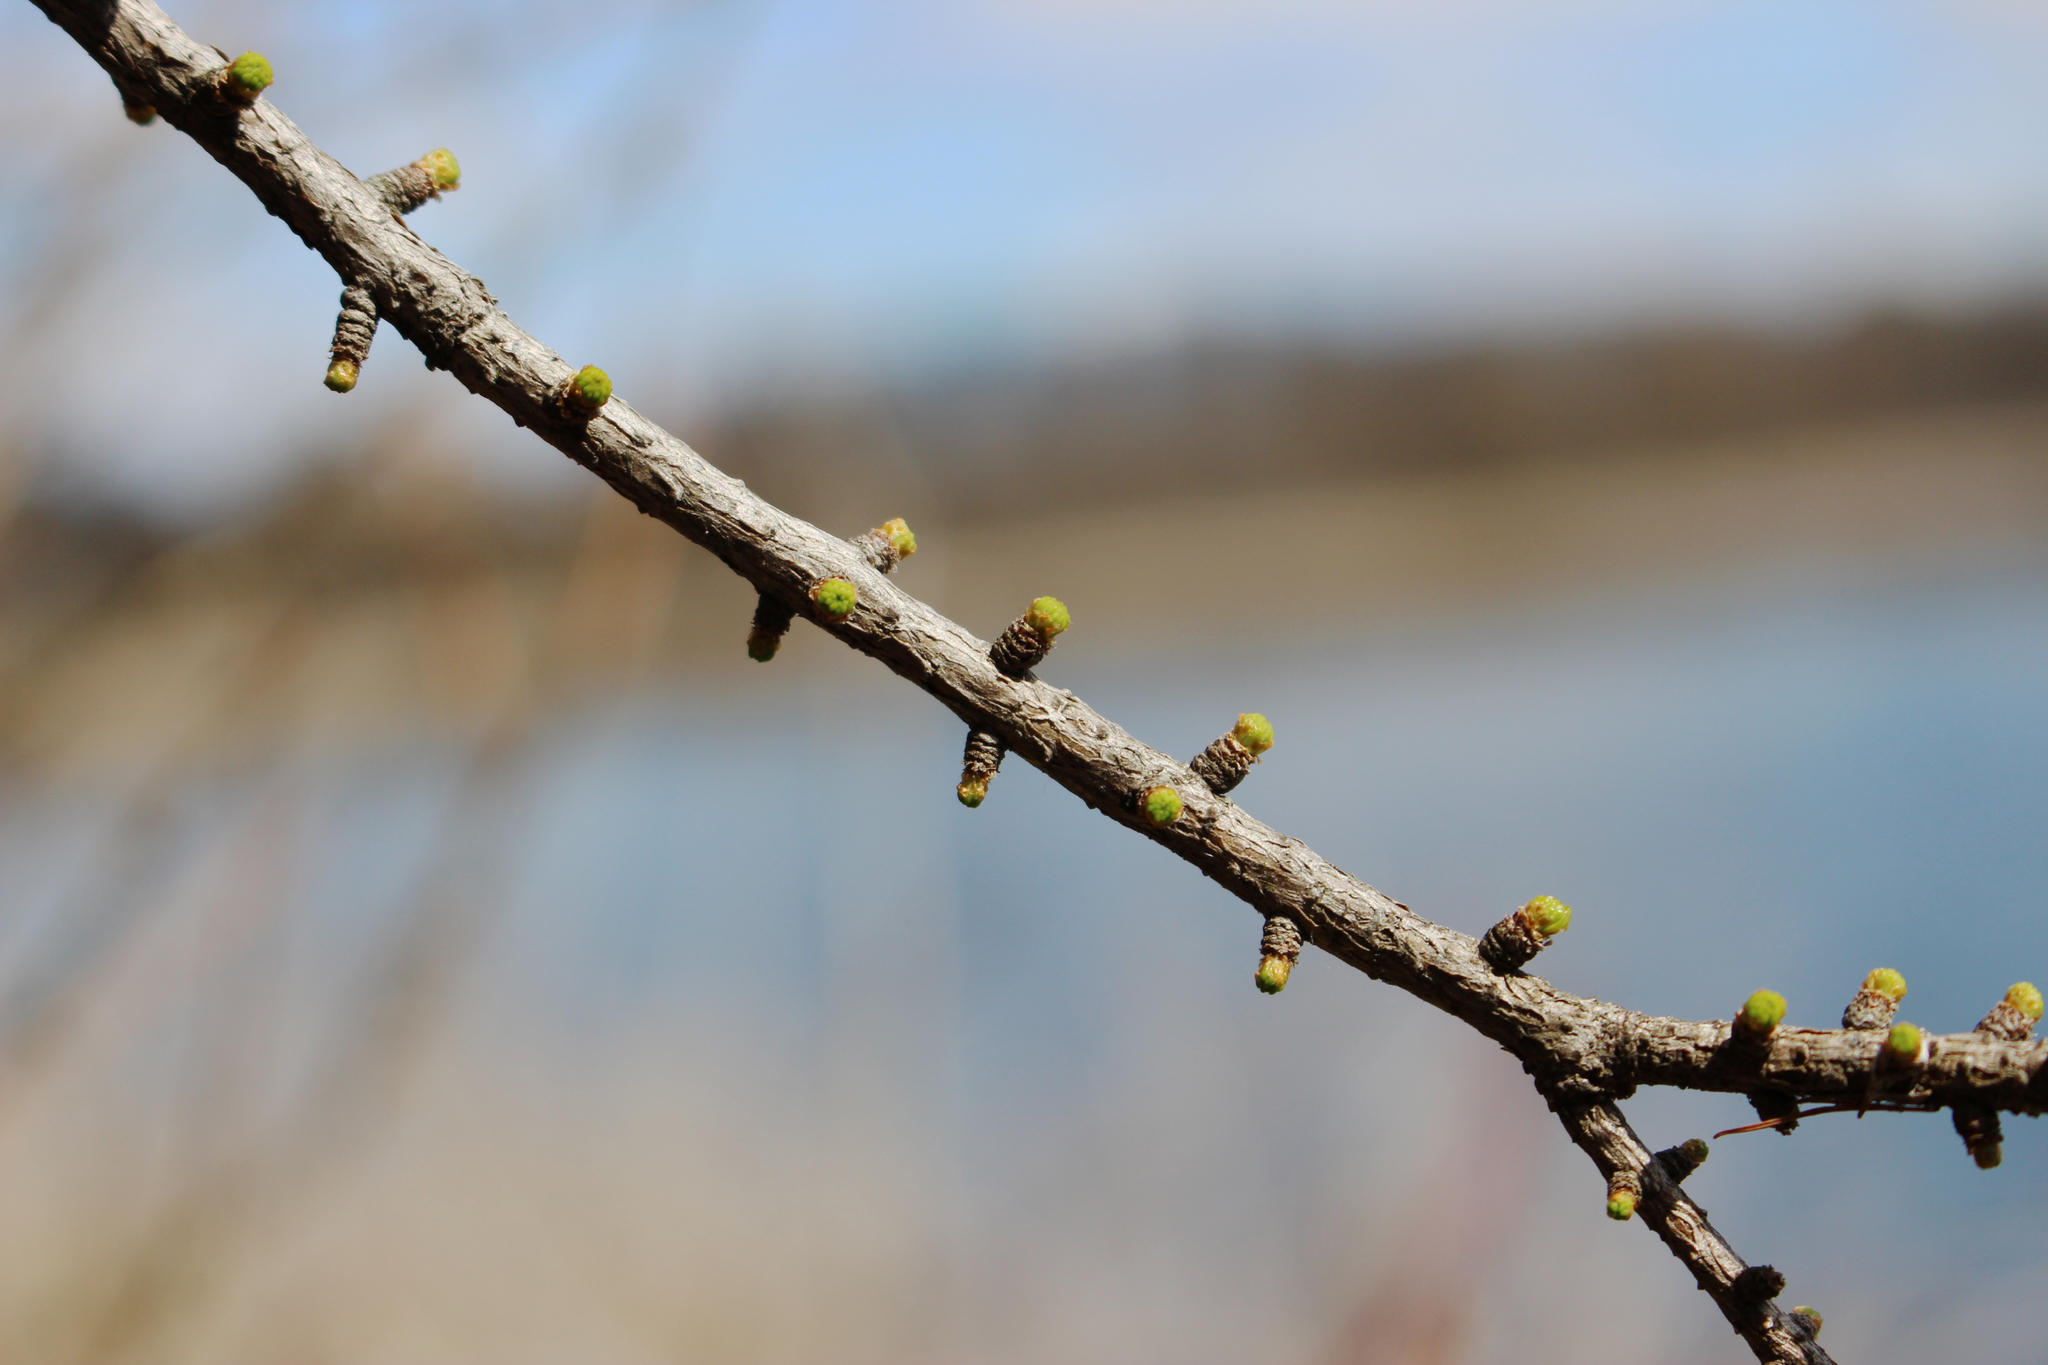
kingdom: Plantae
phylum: Tracheophyta
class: Pinopsida
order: Pinales
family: Pinaceae
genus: Larix
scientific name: Larix laricina
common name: American larch
